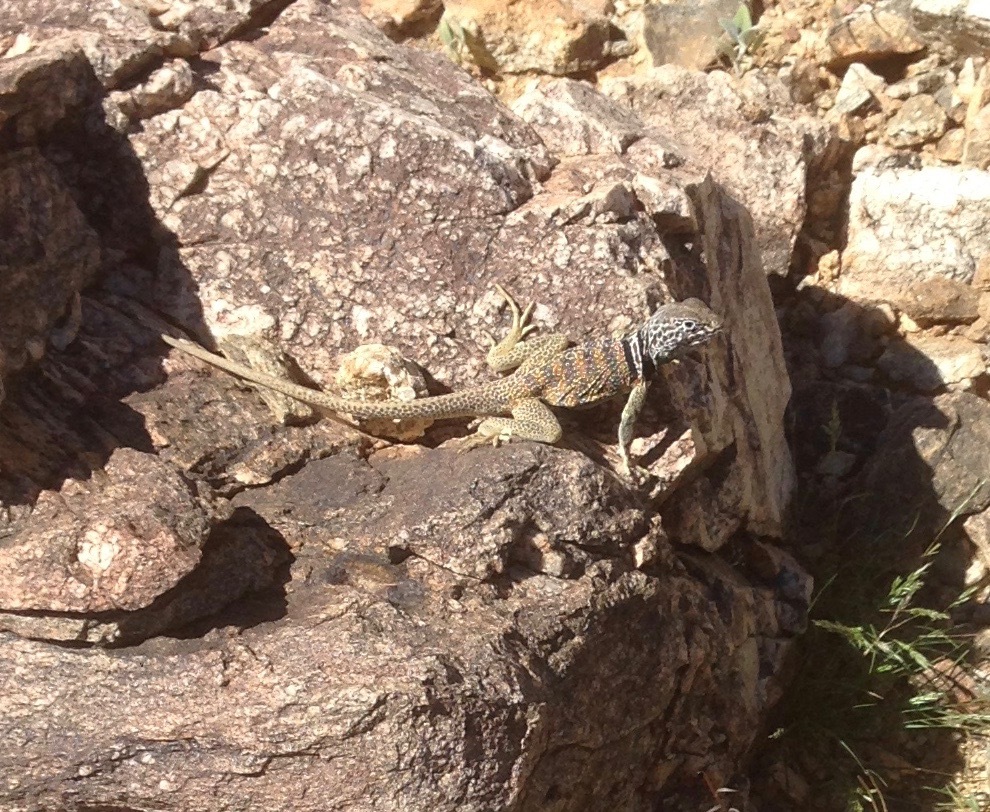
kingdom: Animalia
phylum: Chordata
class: Squamata
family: Crotaphytidae
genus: Crotaphytus
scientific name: Crotaphytus bicinctores
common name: Mojave black-collared lizard
